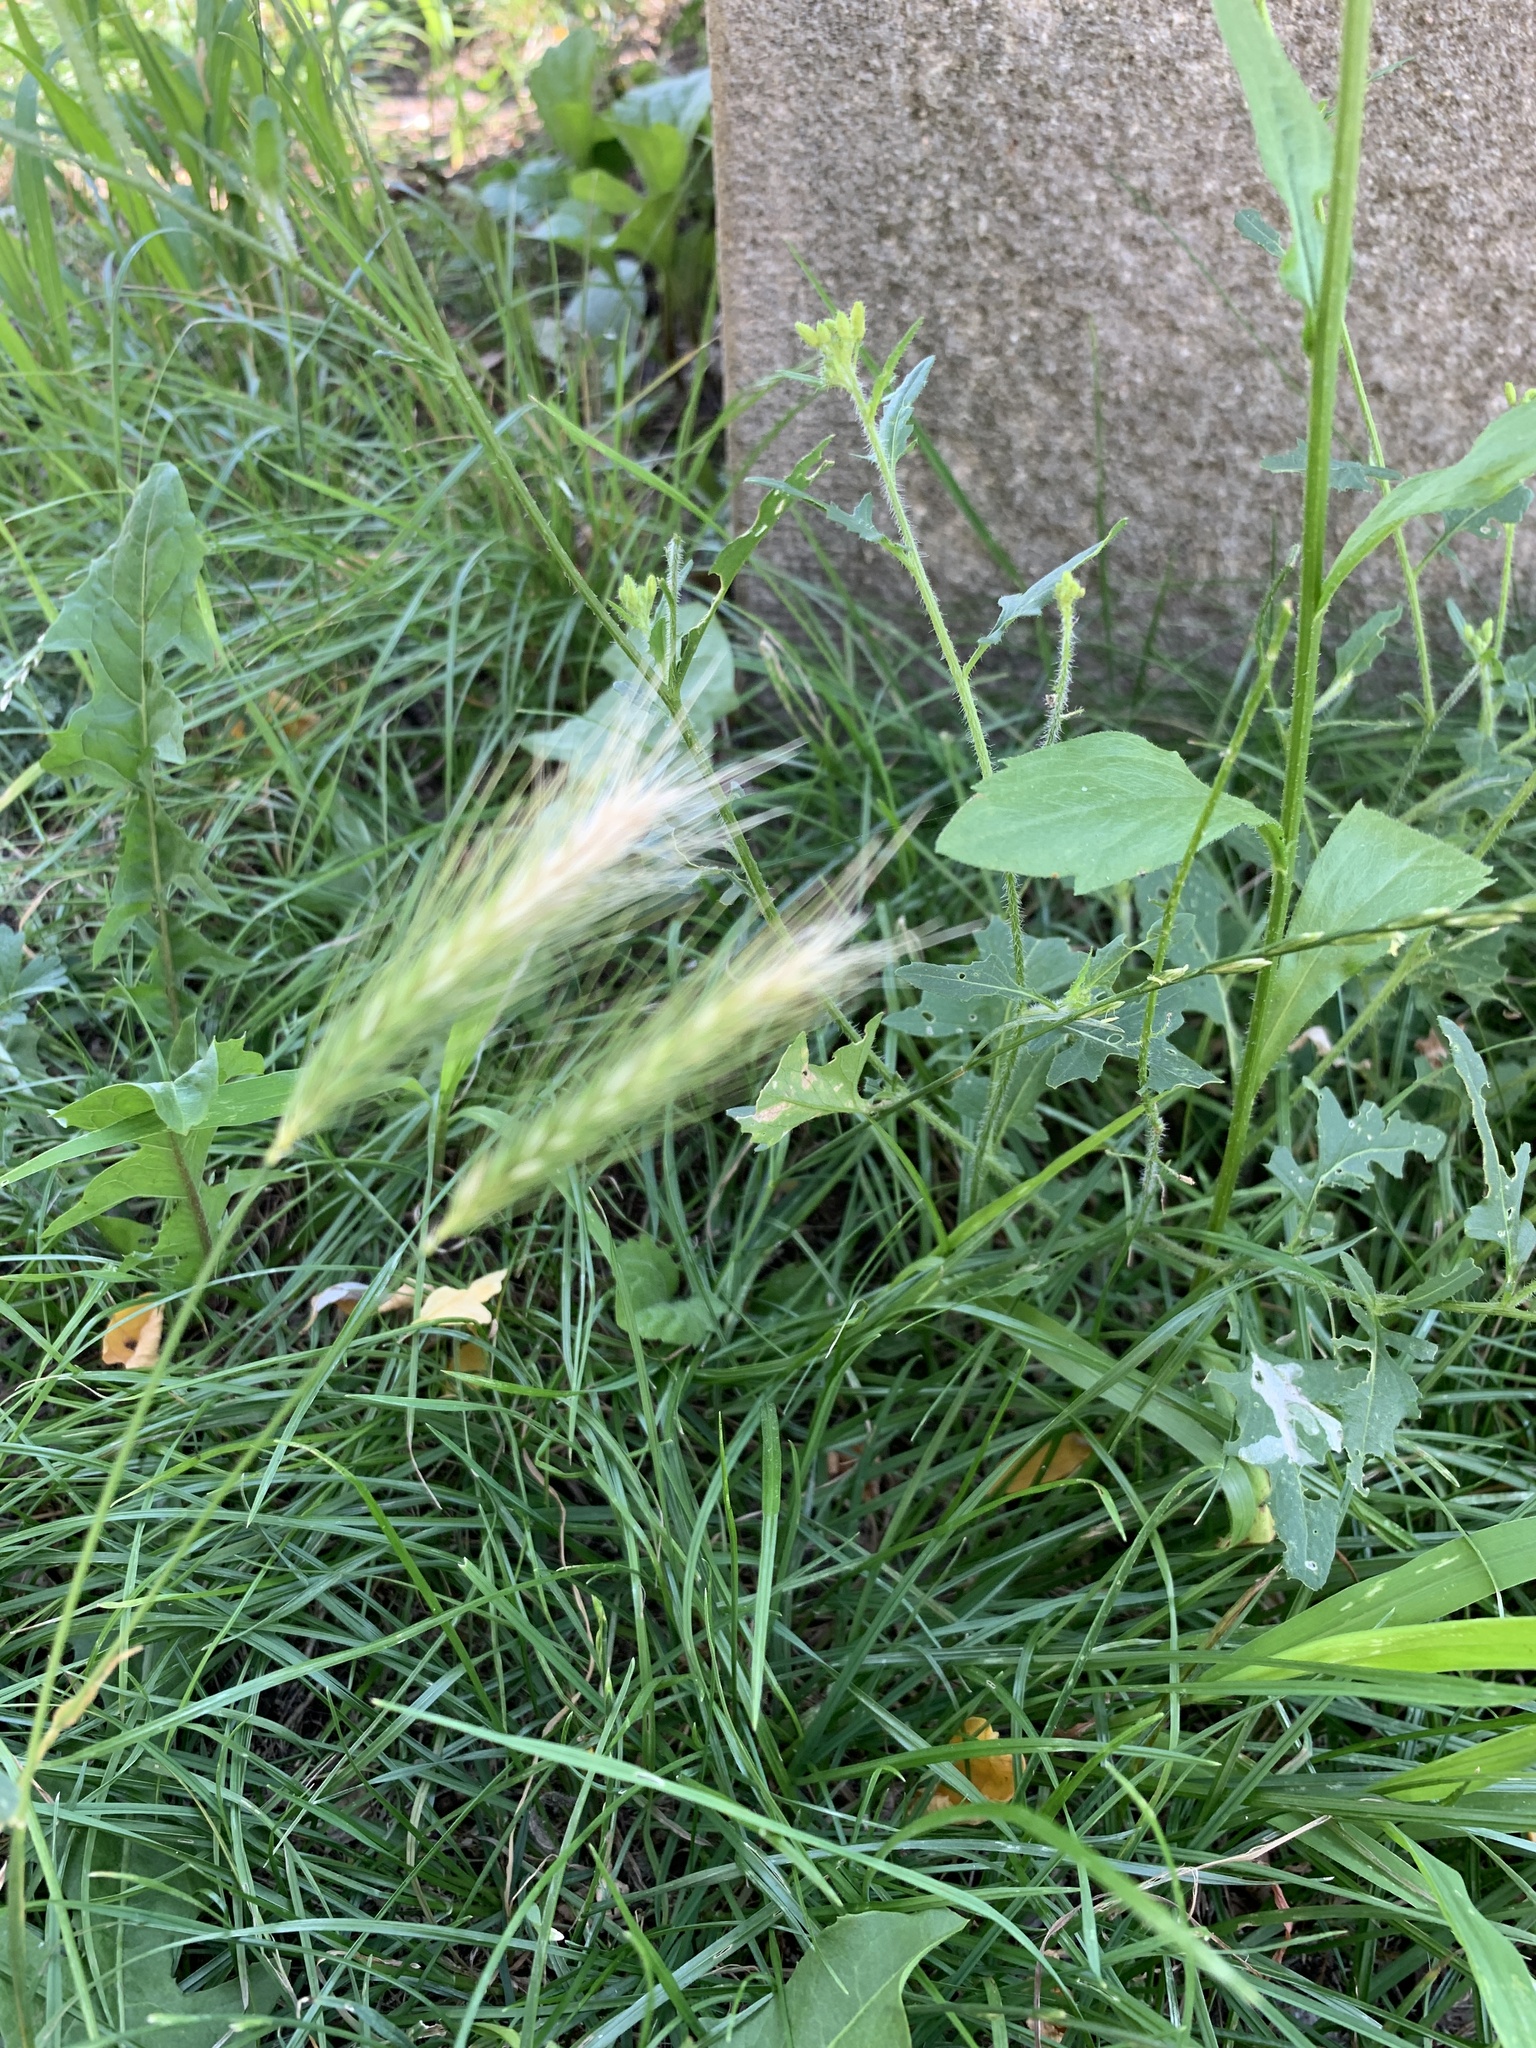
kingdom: Plantae
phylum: Tracheophyta
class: Liliopsida
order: Poales
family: Poaceae
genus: Hordeum
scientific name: Hordeum murinum
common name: Wall barley
